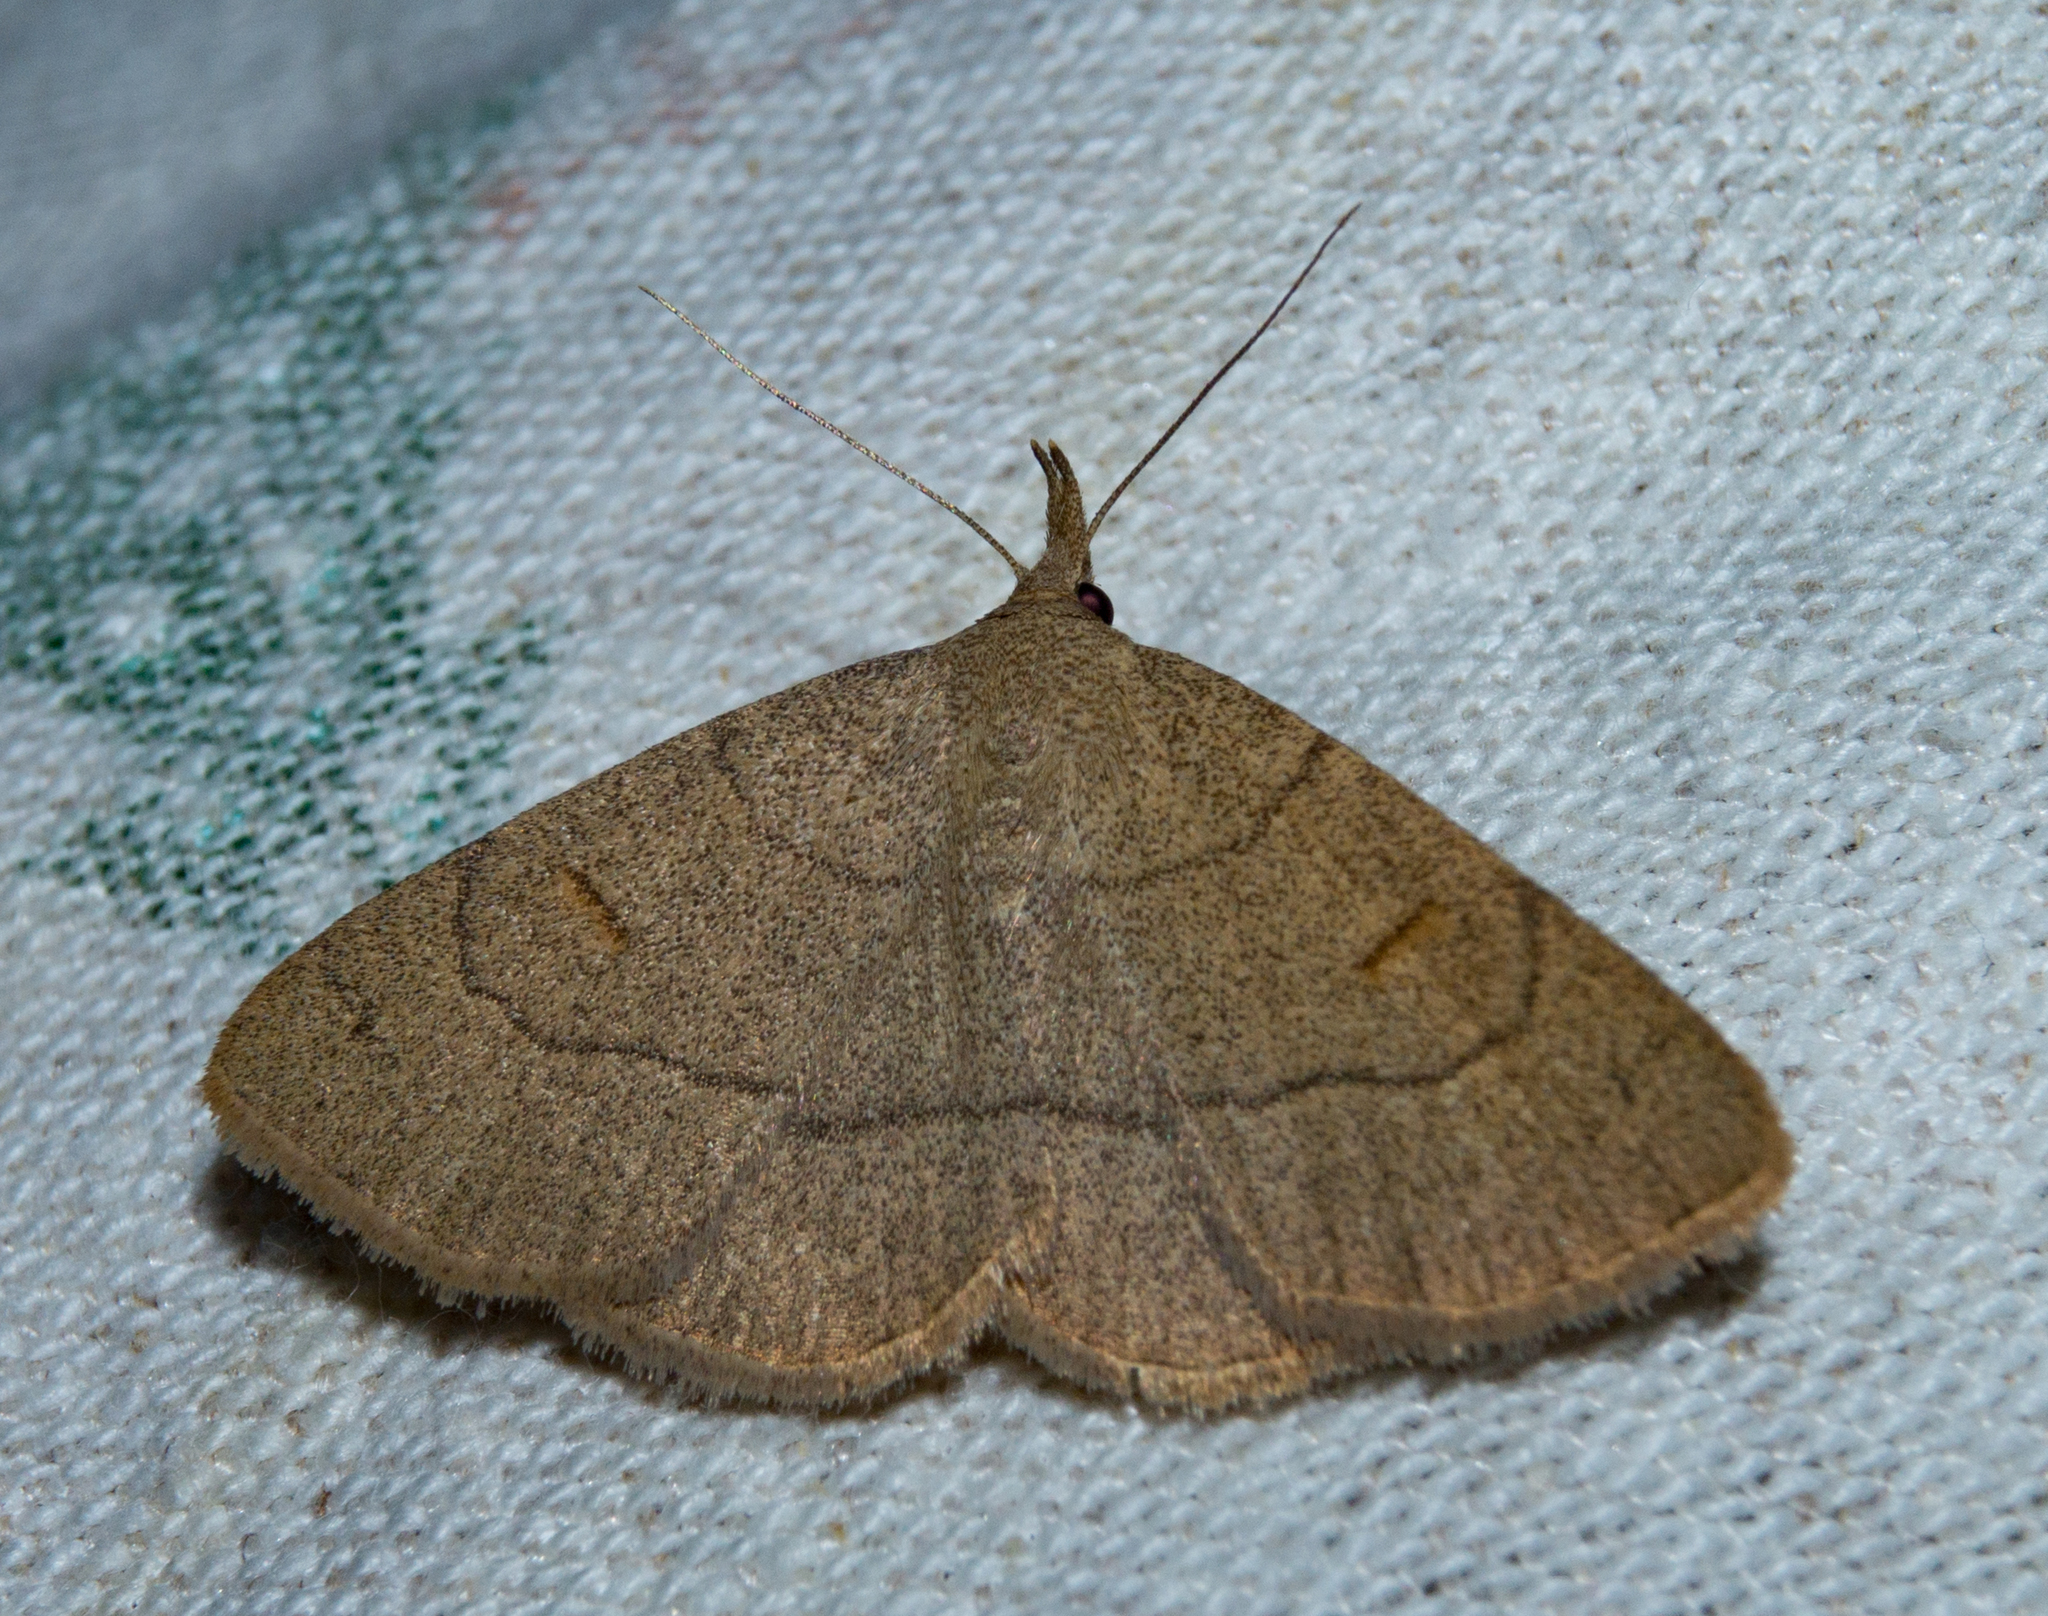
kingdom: Animalia
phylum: Arthropoda
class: Insecta
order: Lepidoptera
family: Erebidae
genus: Paracolax
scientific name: Paracolax tristalis
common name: Clay fan-foot
